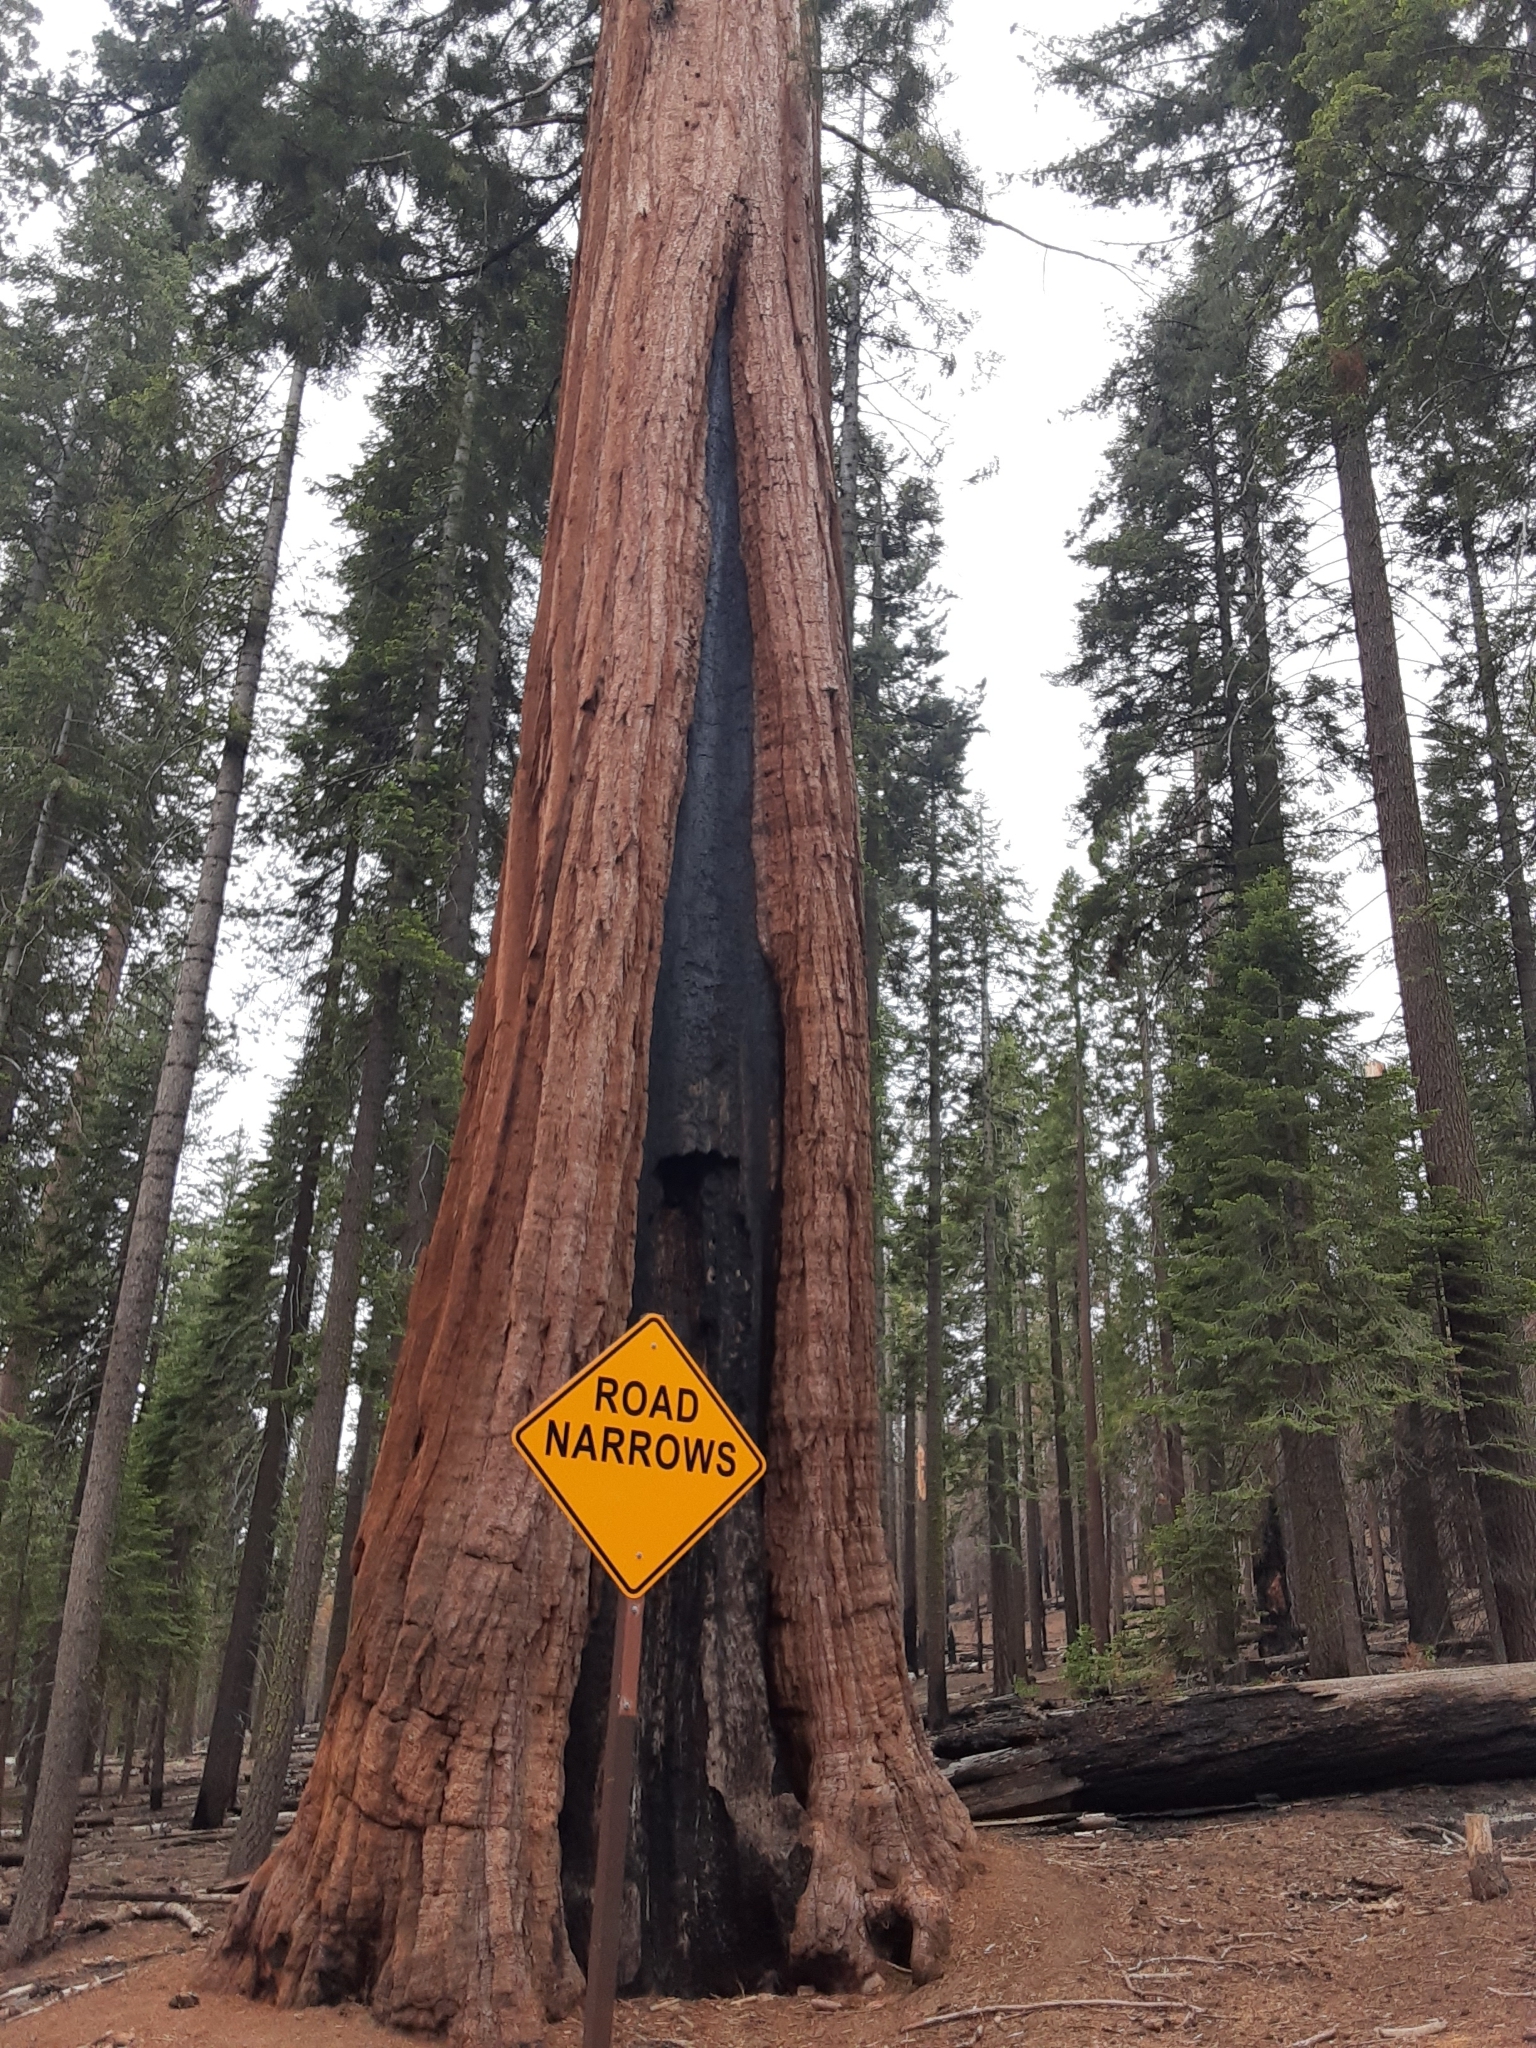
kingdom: Plantae
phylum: Tracheophyta
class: Pinopsida
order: Pinales
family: Cupressaceae
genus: Sequoiadendron
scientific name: Sequoiadendron giganteum
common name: Wellingtonia
